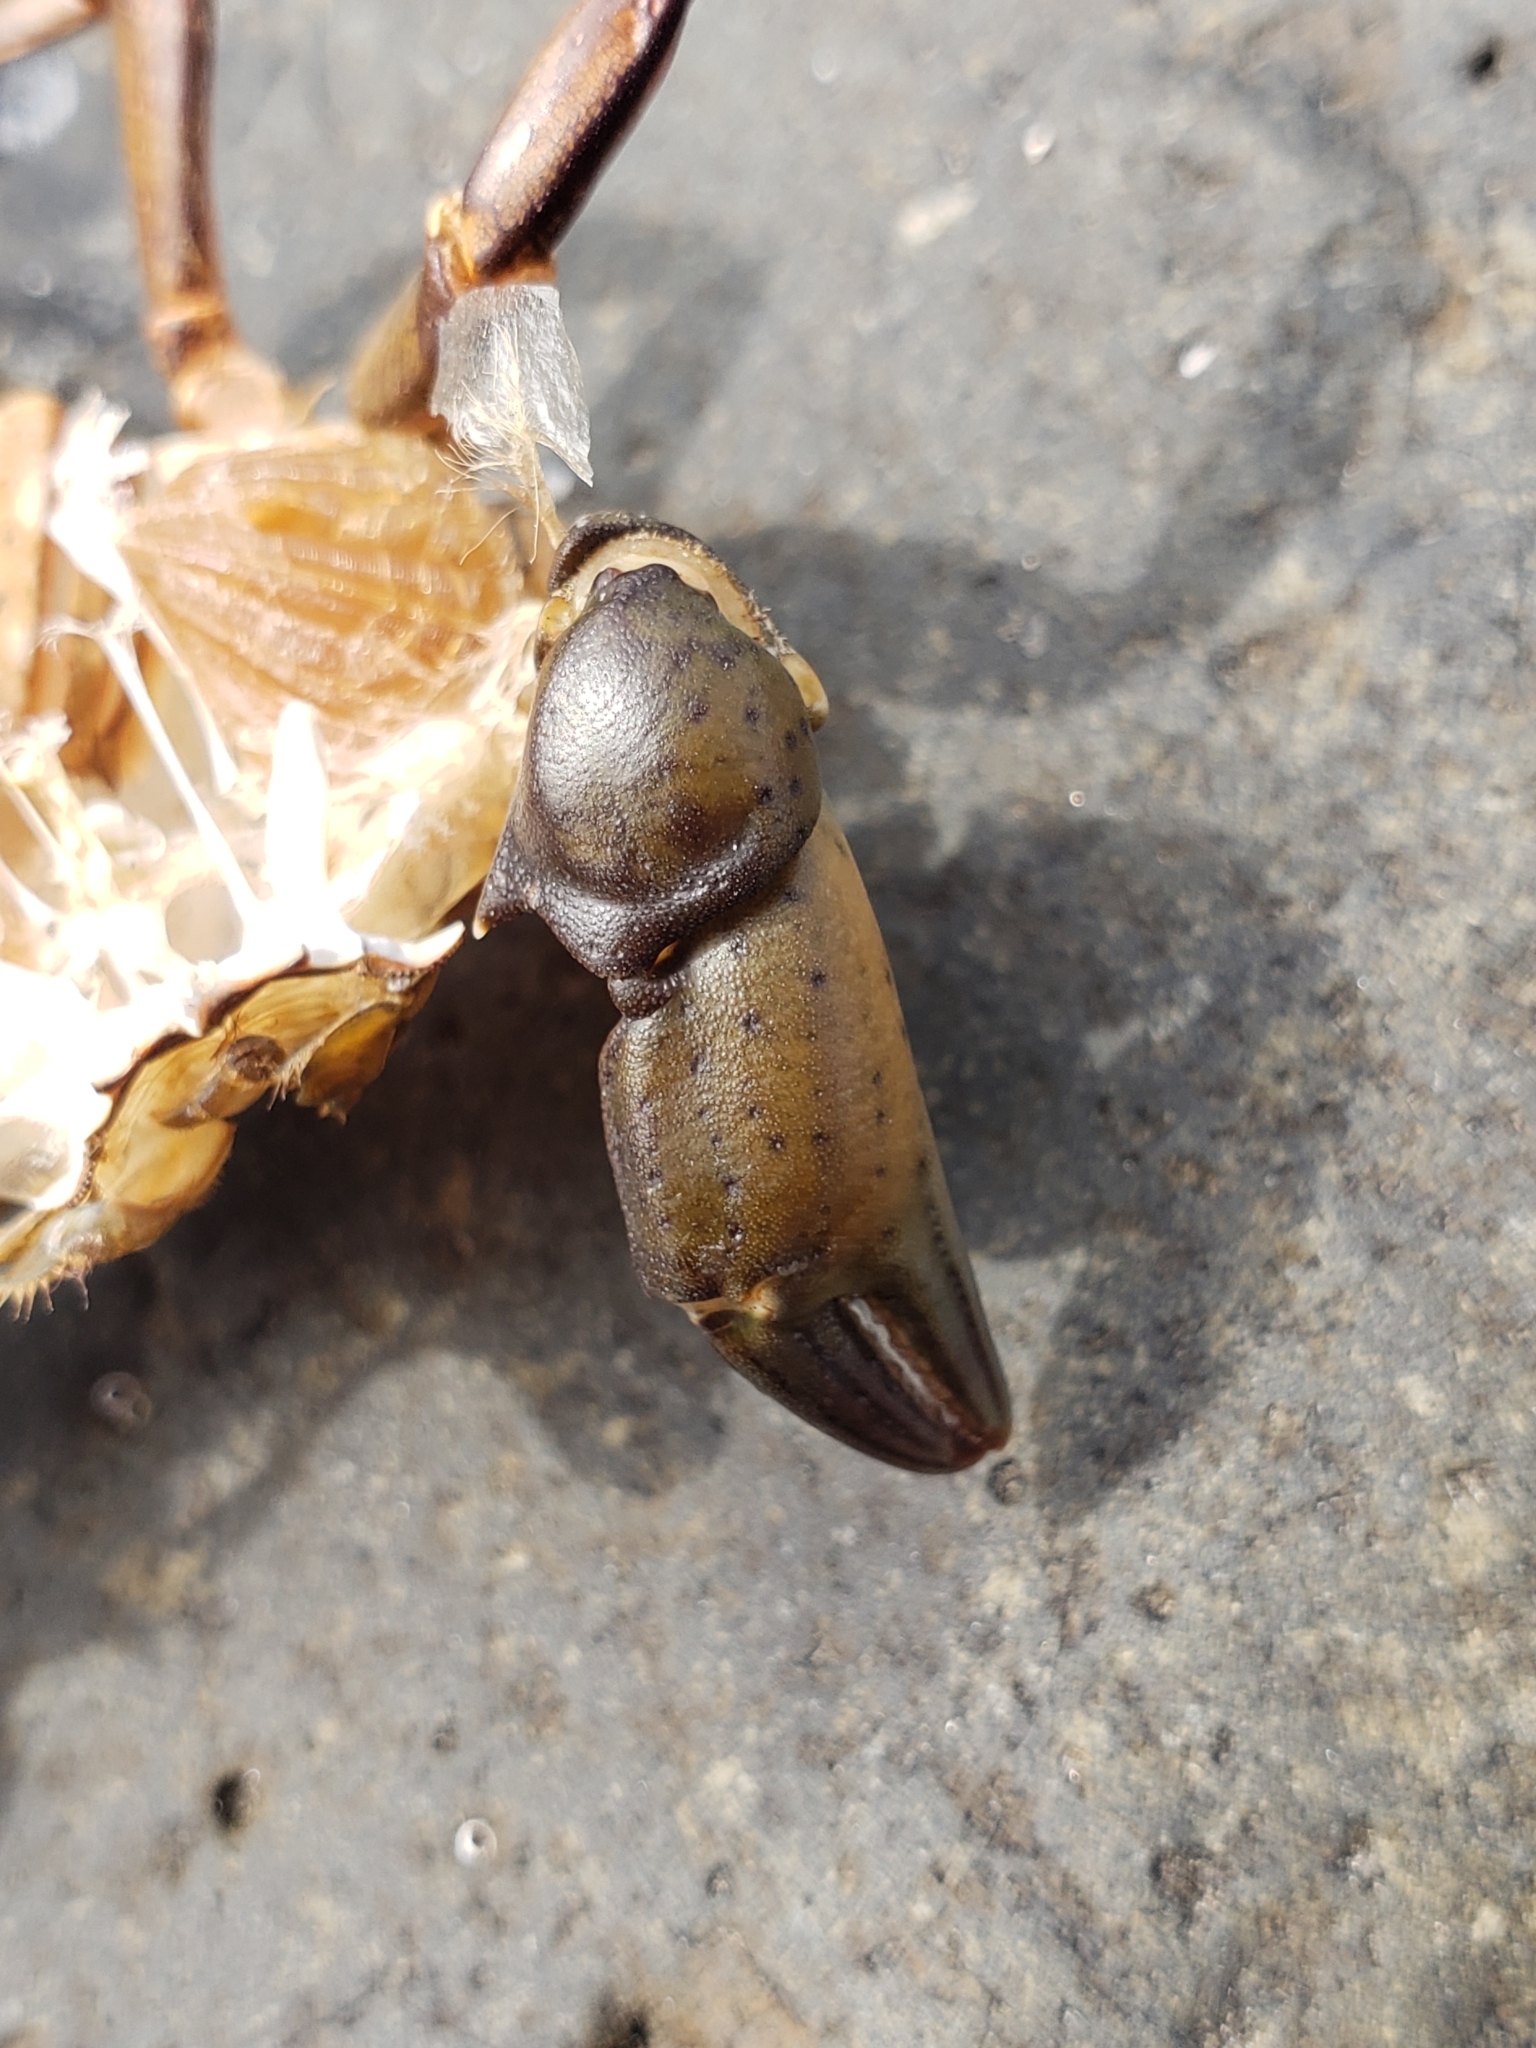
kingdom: Animalia
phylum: Arthropoda
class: Malacostraca
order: Decapoda
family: Carcinidae
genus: Carcinus
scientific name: Carcinus maenas
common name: European green crab
